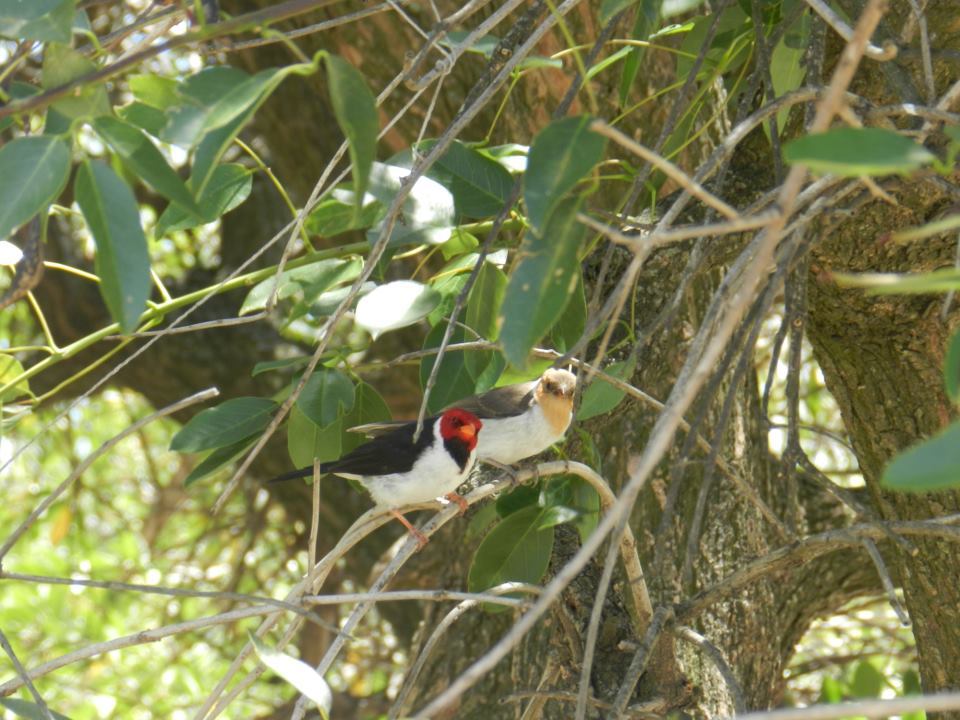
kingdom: Animalia
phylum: Chordata
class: Aves
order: Passeriformes
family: Thraupidae
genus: Paroaria
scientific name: Paroaria capitata
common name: Yellow-billed cardinal
